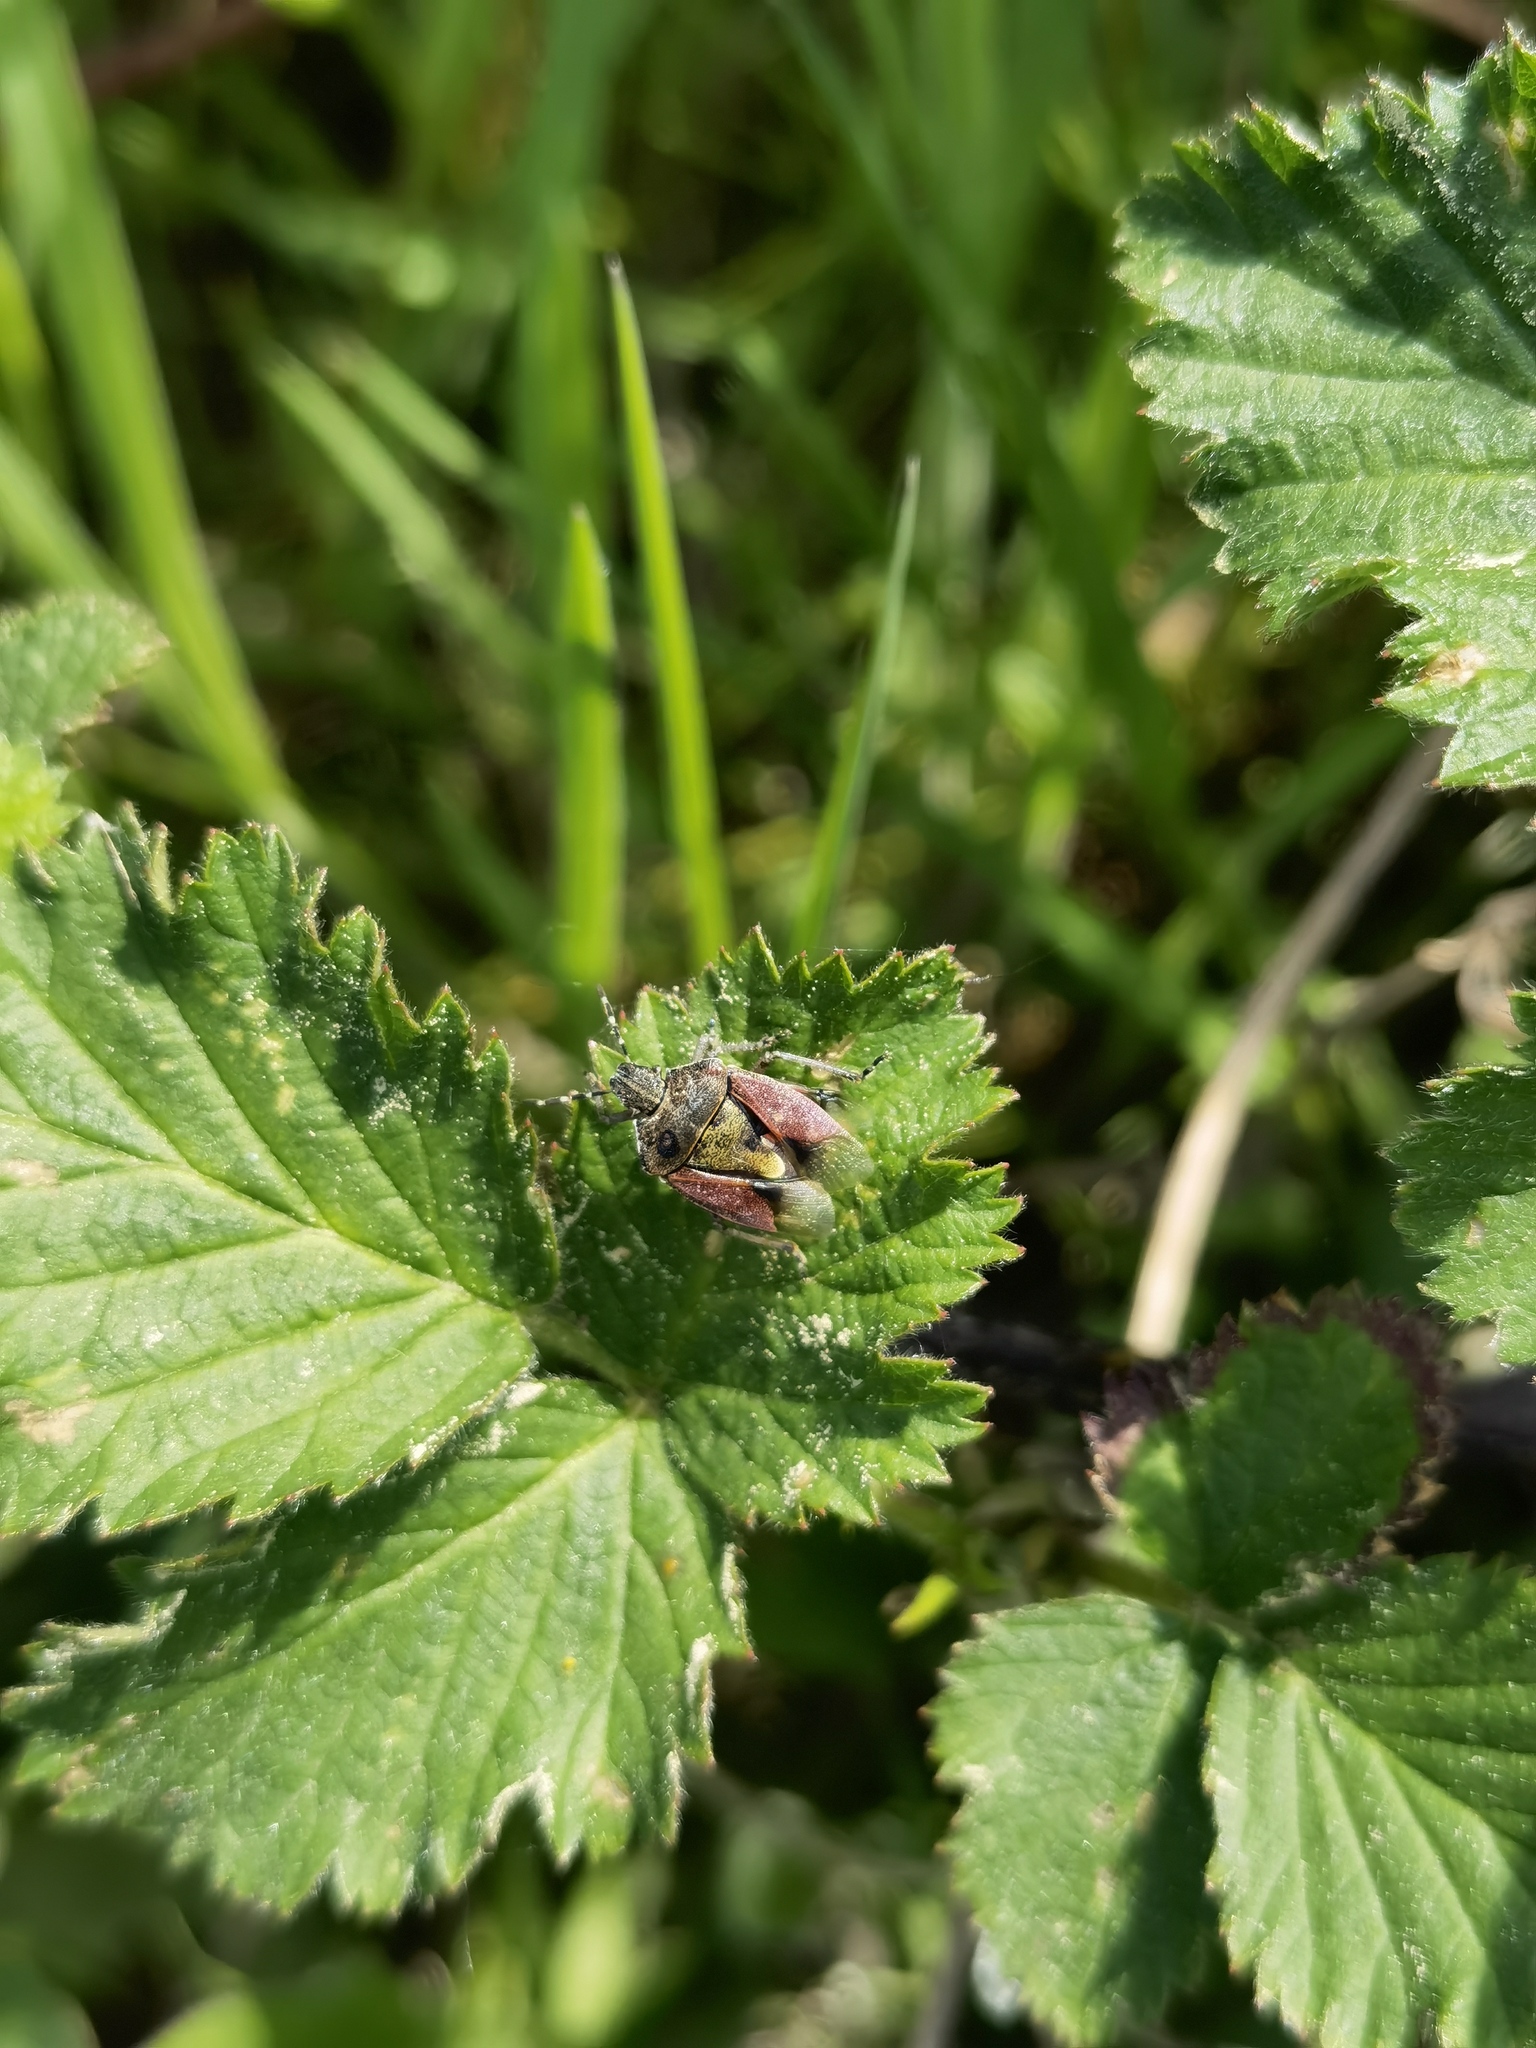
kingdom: Animalia
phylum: Arthropoda
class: Insecta
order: Hemiptera
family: Pentatomidae
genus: Dolycoris
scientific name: Dolycoris baccarum
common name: Sloe bug
